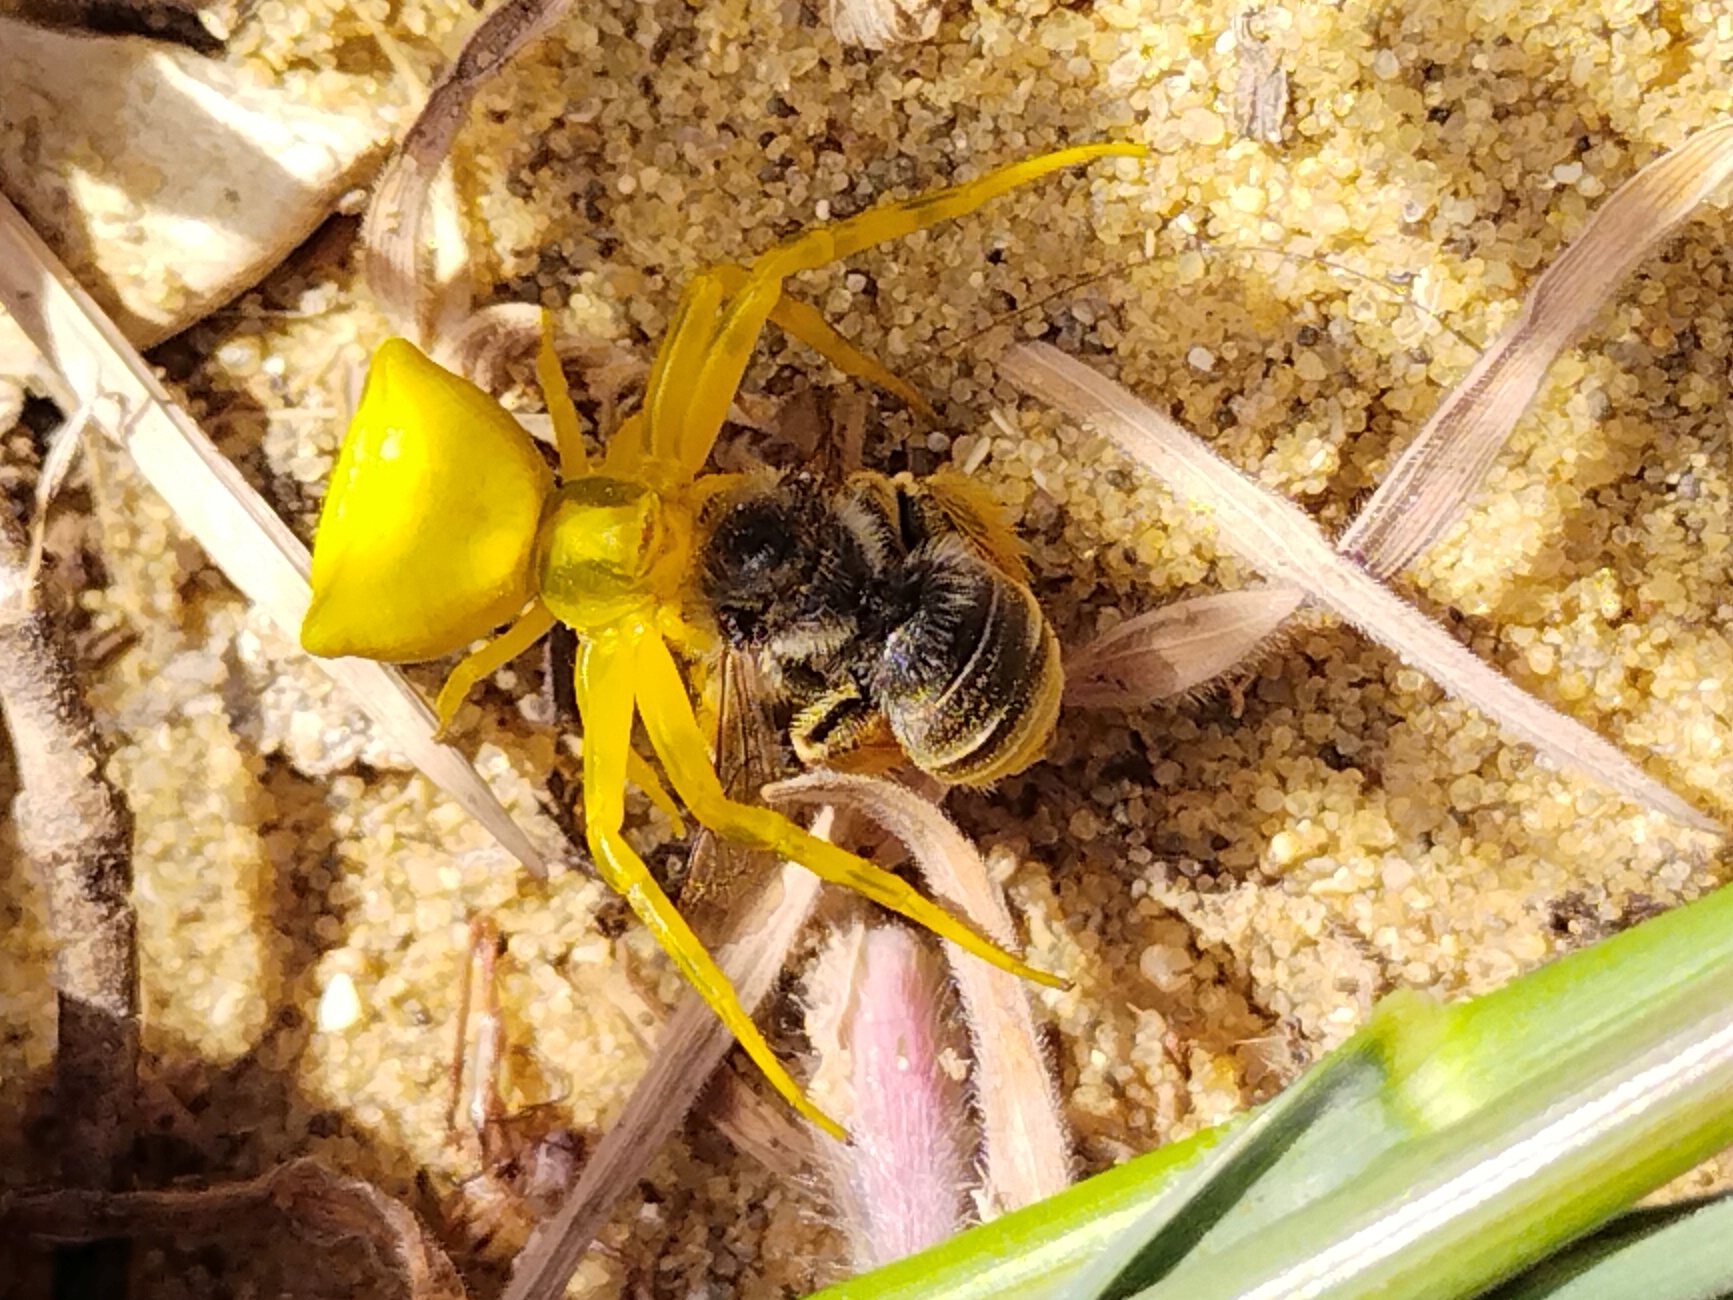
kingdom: Animalia
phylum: Arthropoda
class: Arachnida
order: Araneae
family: Thomisidae
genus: Thomisus
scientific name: Thomisus onustus
